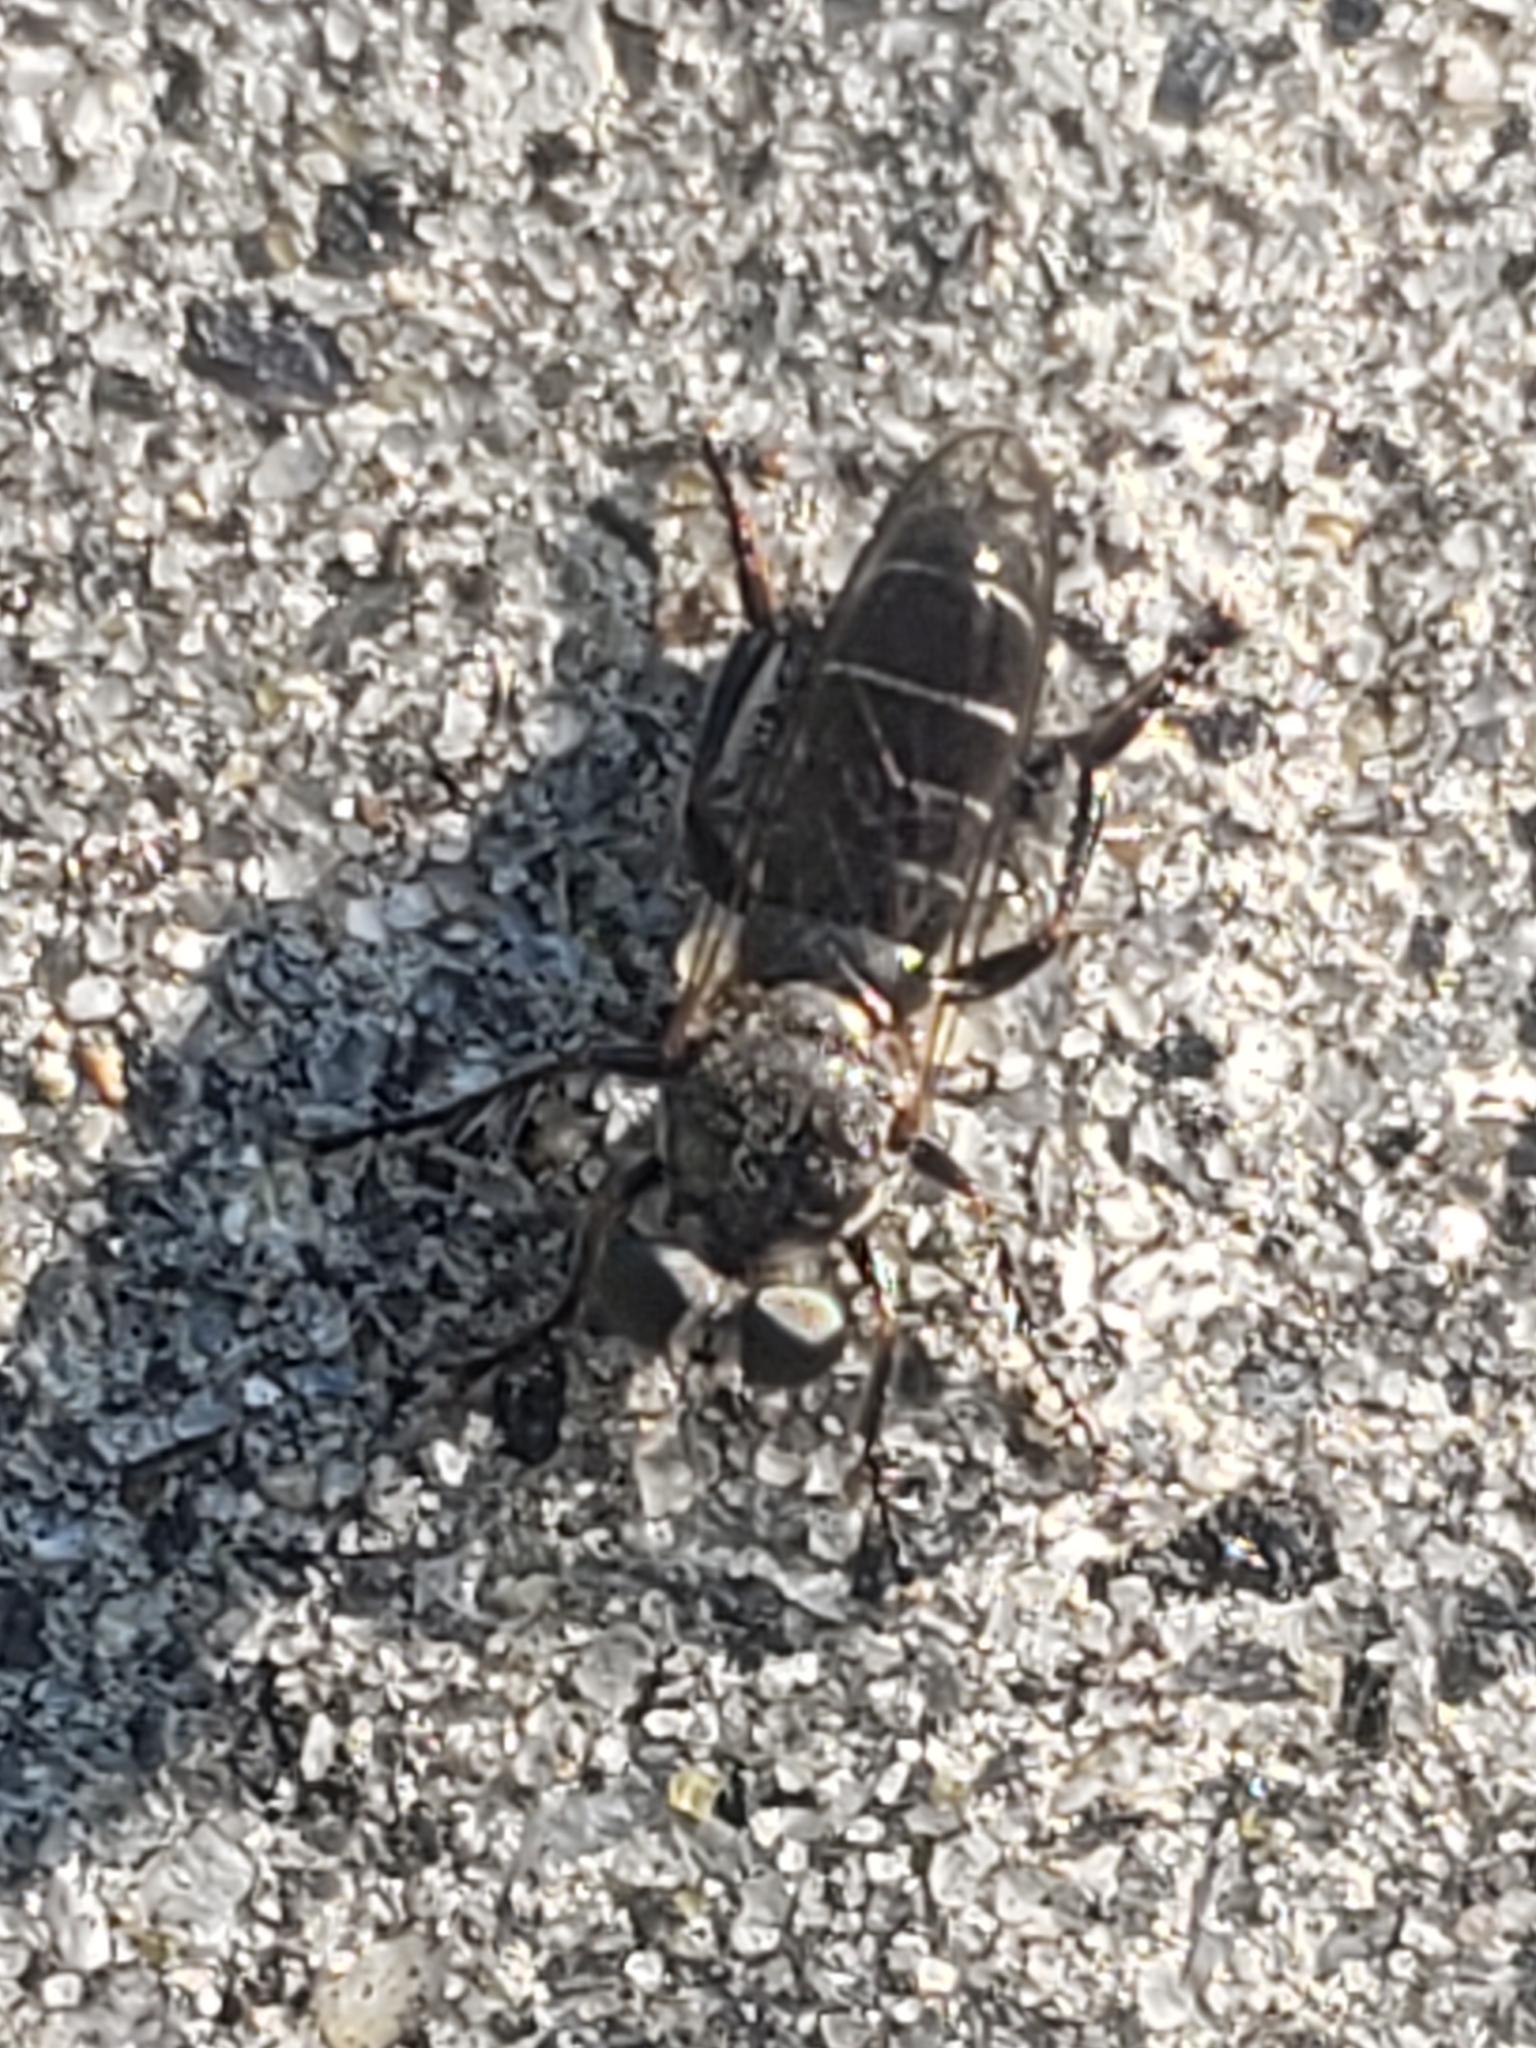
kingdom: Animalia
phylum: Arthropoda
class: Insecta
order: Diptera
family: Asilidae
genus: Atomosia
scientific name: Atomosia puella
